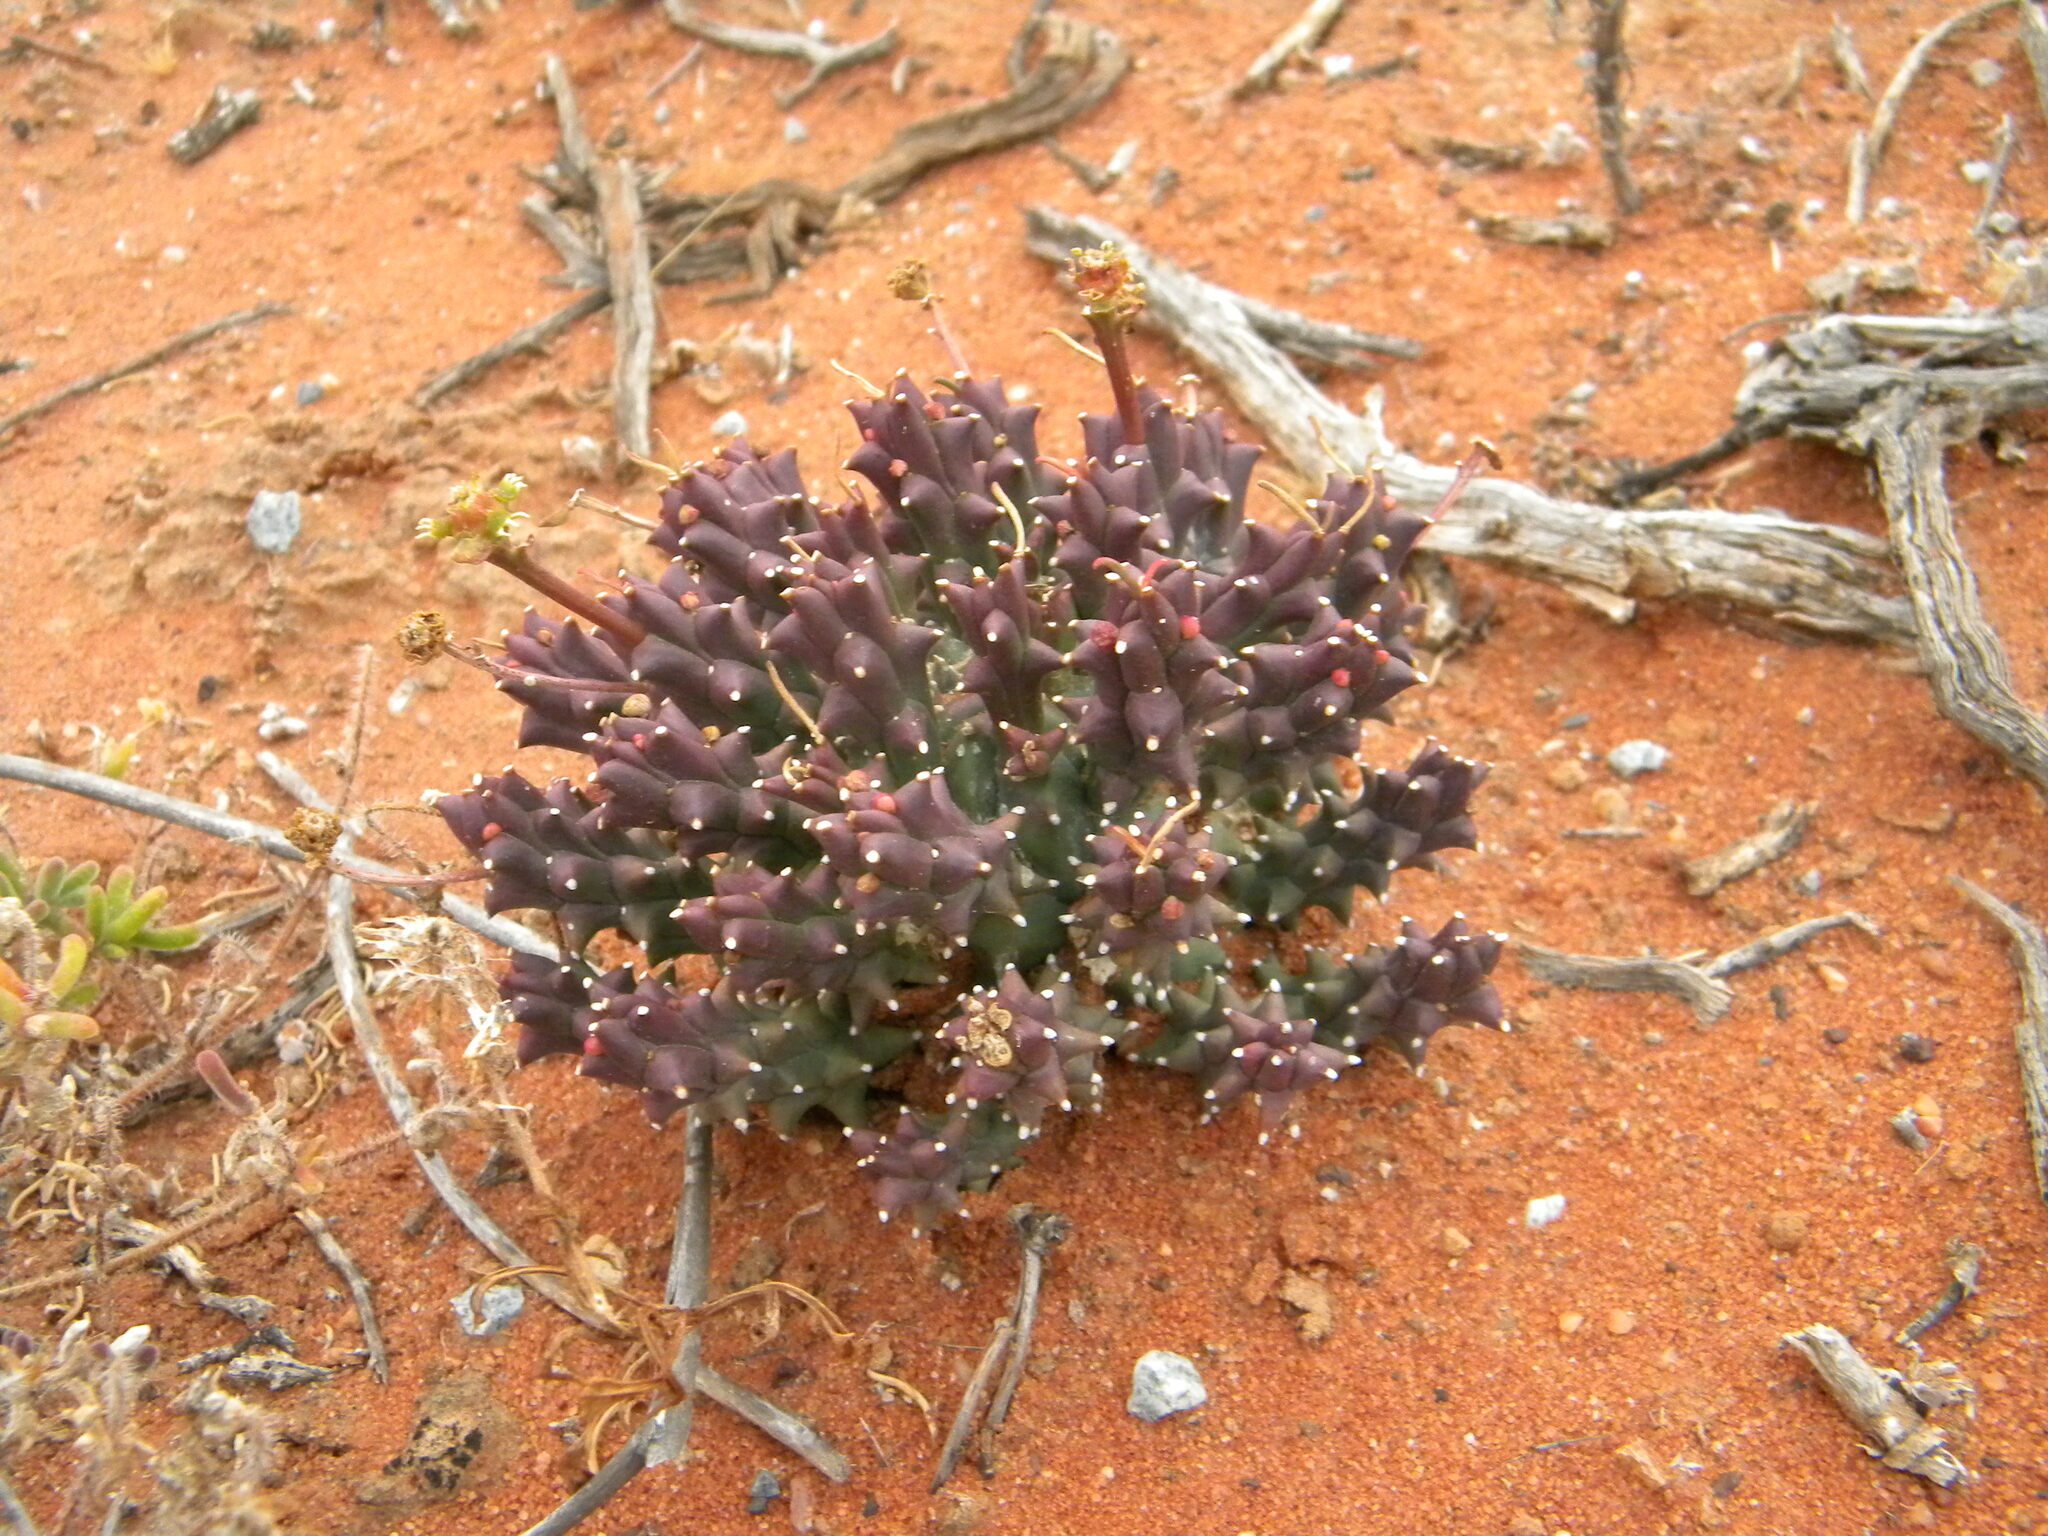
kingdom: Plantae
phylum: Tracheophyta
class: Magnoliopsida
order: Malpighiales
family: Euphorbiaceae
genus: Euphorbia
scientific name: Euphorbia caput-medusae
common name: Medusa's-head
